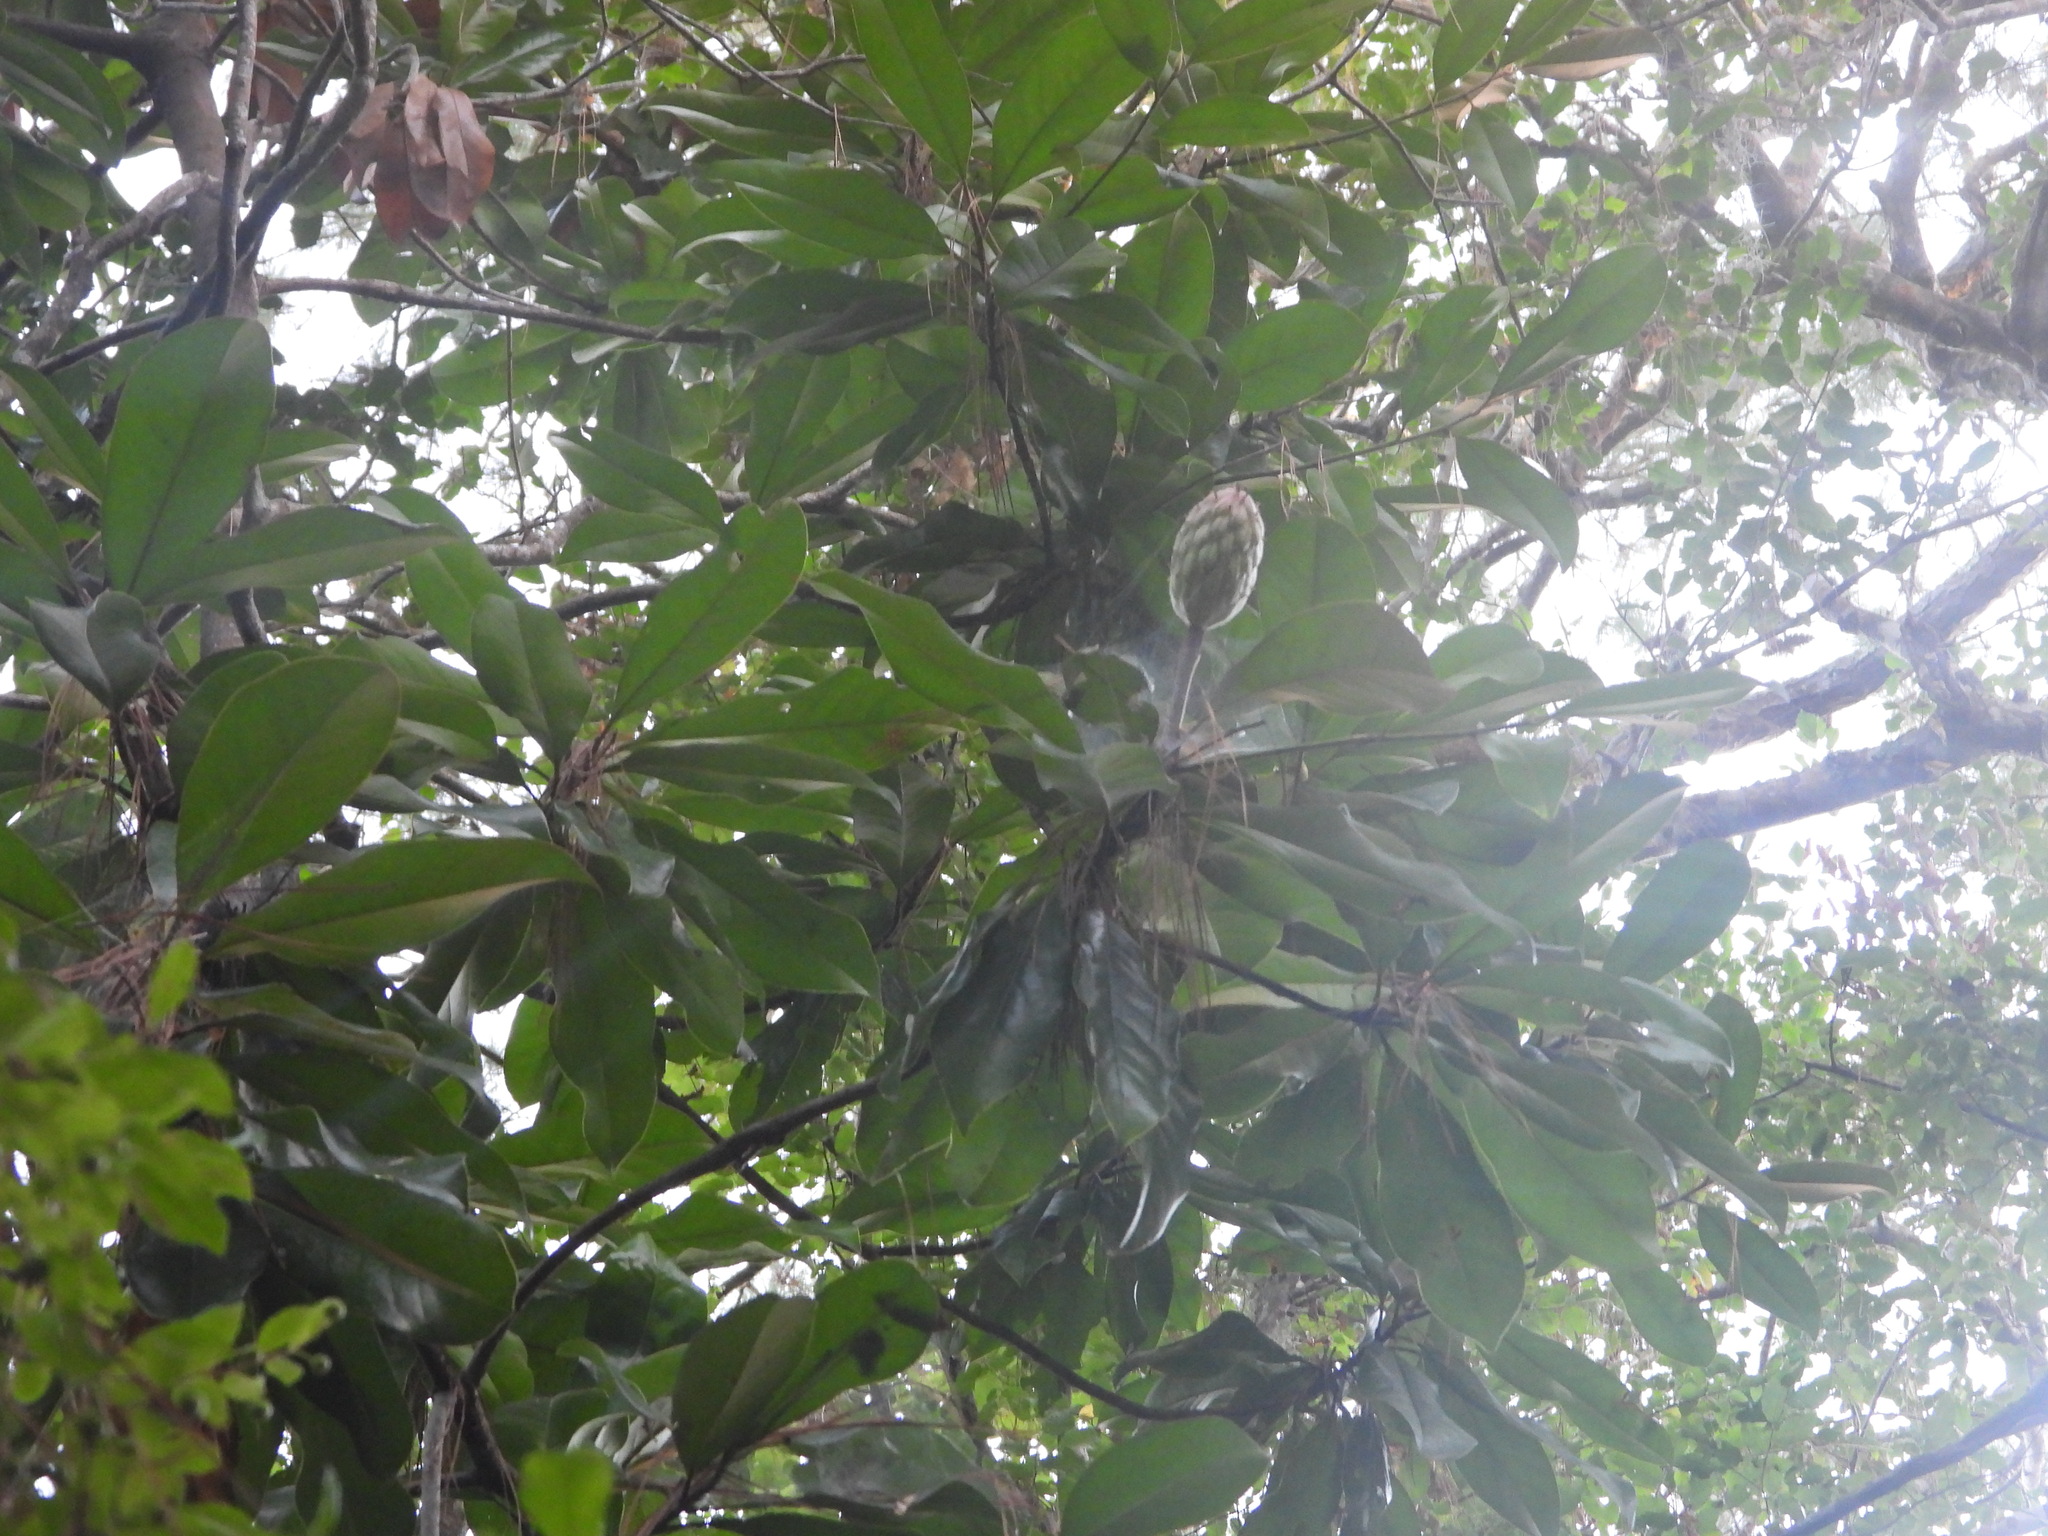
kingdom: Plantae
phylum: Tracheophyta
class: Magnoliopsida
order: Magnoliales
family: Magnoliaceae
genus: Magnolia
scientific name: Magnolia grandiflora
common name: Southern magnolia
